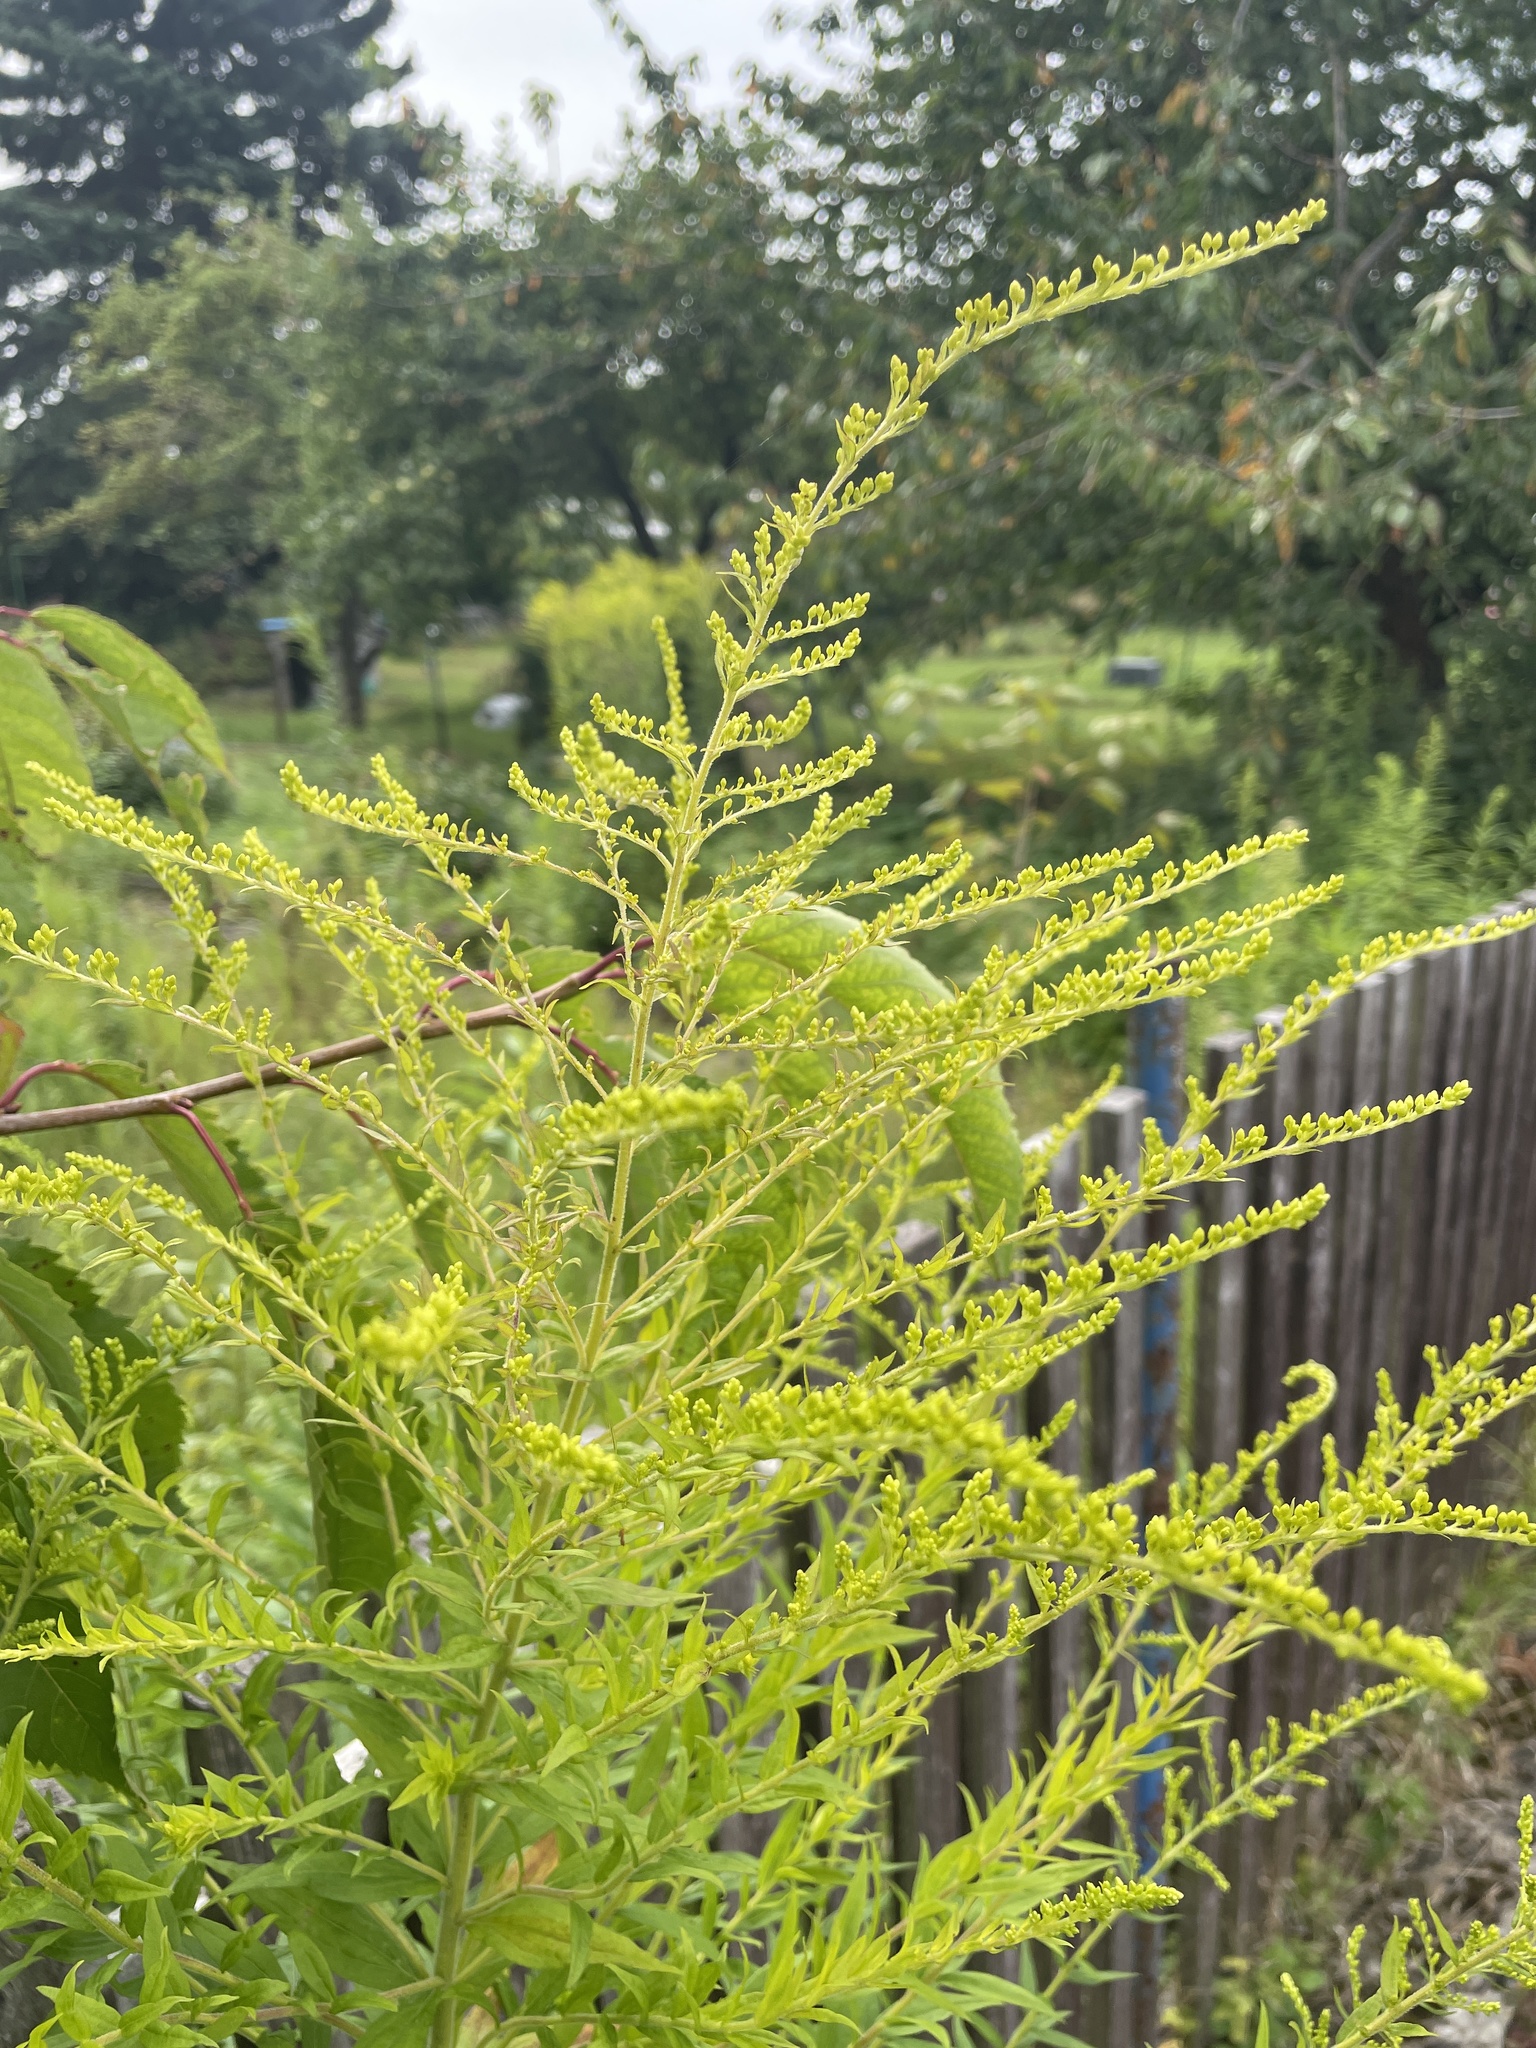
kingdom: Plantae
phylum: Tracheophyta
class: Magnoliopsida
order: Asterales
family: Asteraceae
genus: Solidago
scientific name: Solidago canadensis
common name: Canada goldenrod
